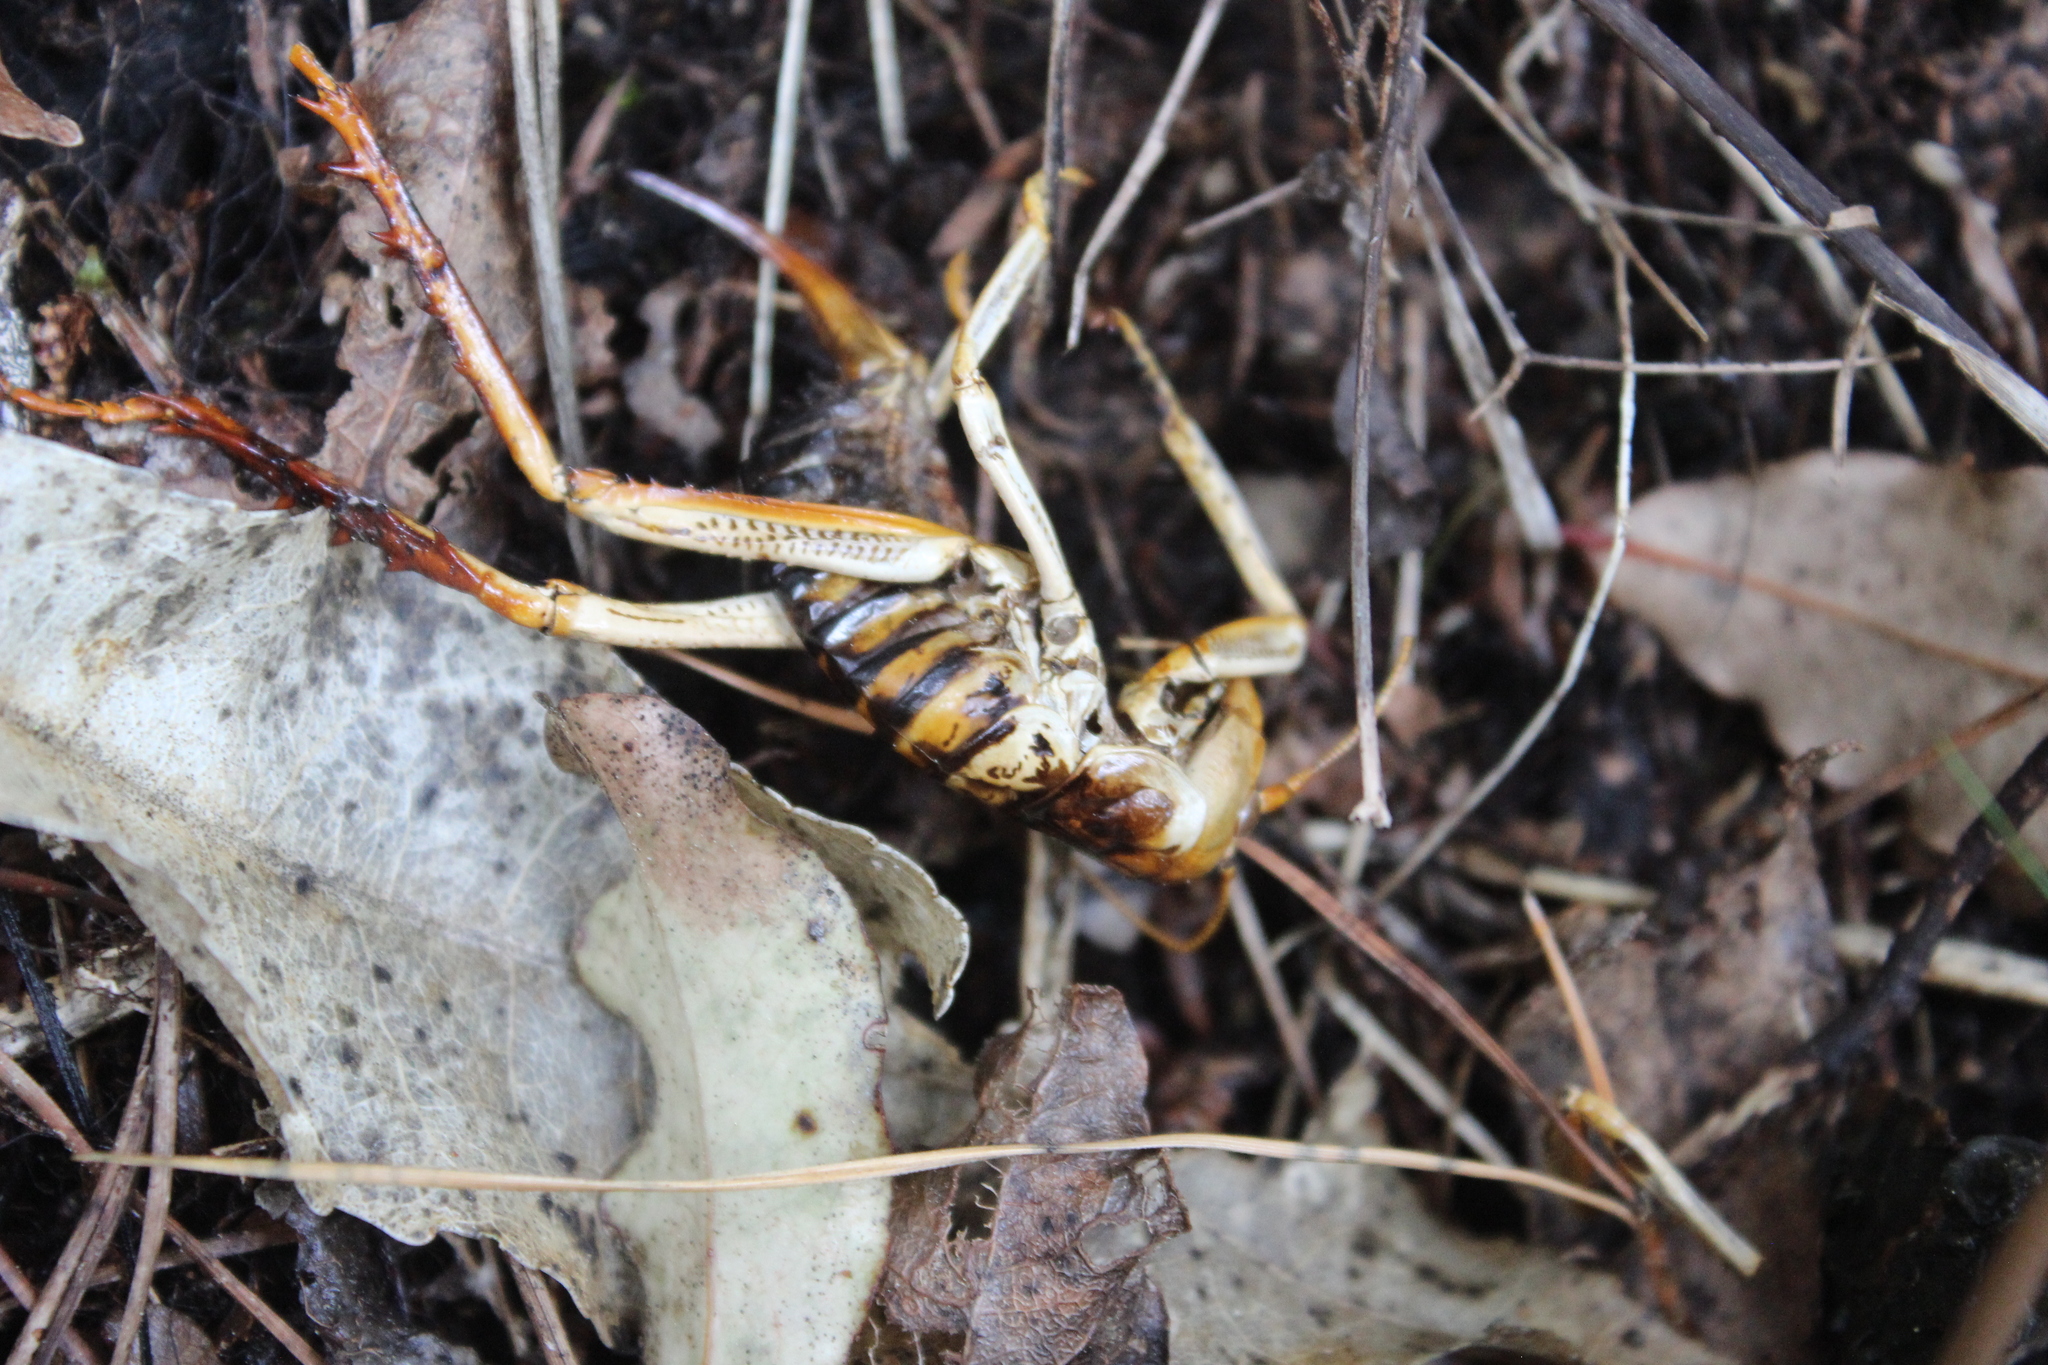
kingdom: Animalia
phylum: Arthropoda
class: Insecta
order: Orthoptera
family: Anostostomatidae
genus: Hemideina
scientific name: Hemideina crassidens
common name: Wellington tree weta
